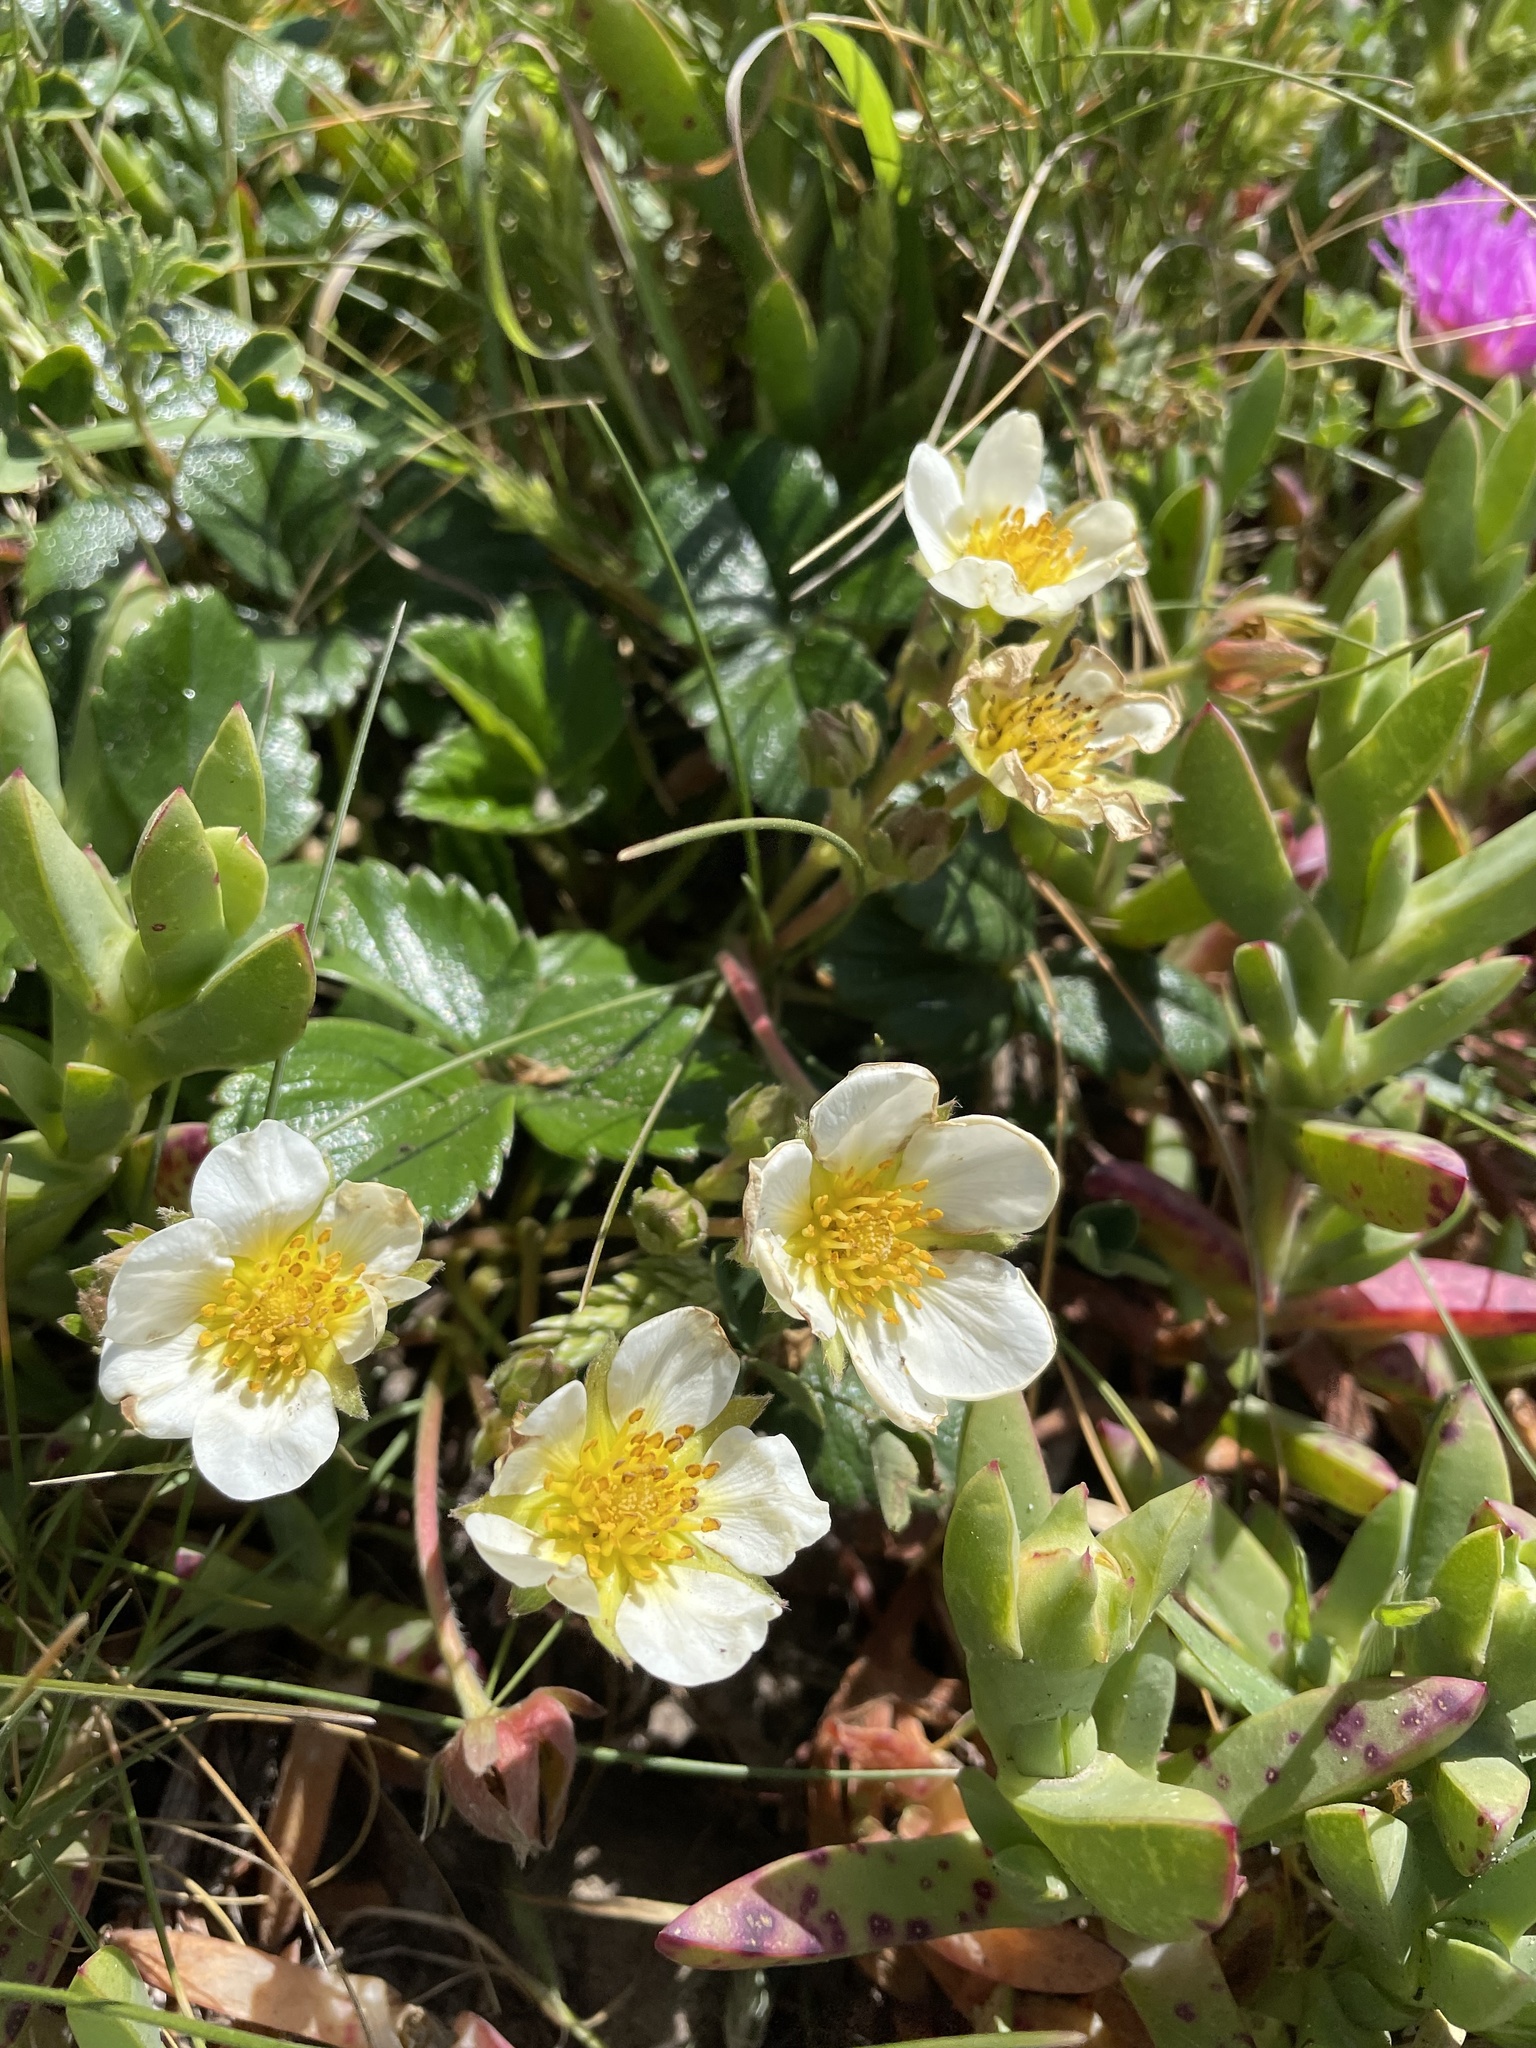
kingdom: Plantae
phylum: Tracheophyta
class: Magnoliopsida
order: Rosales
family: Rosaceae
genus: Fragaria
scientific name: Fragaria chiloensis
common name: Beach strawberry
